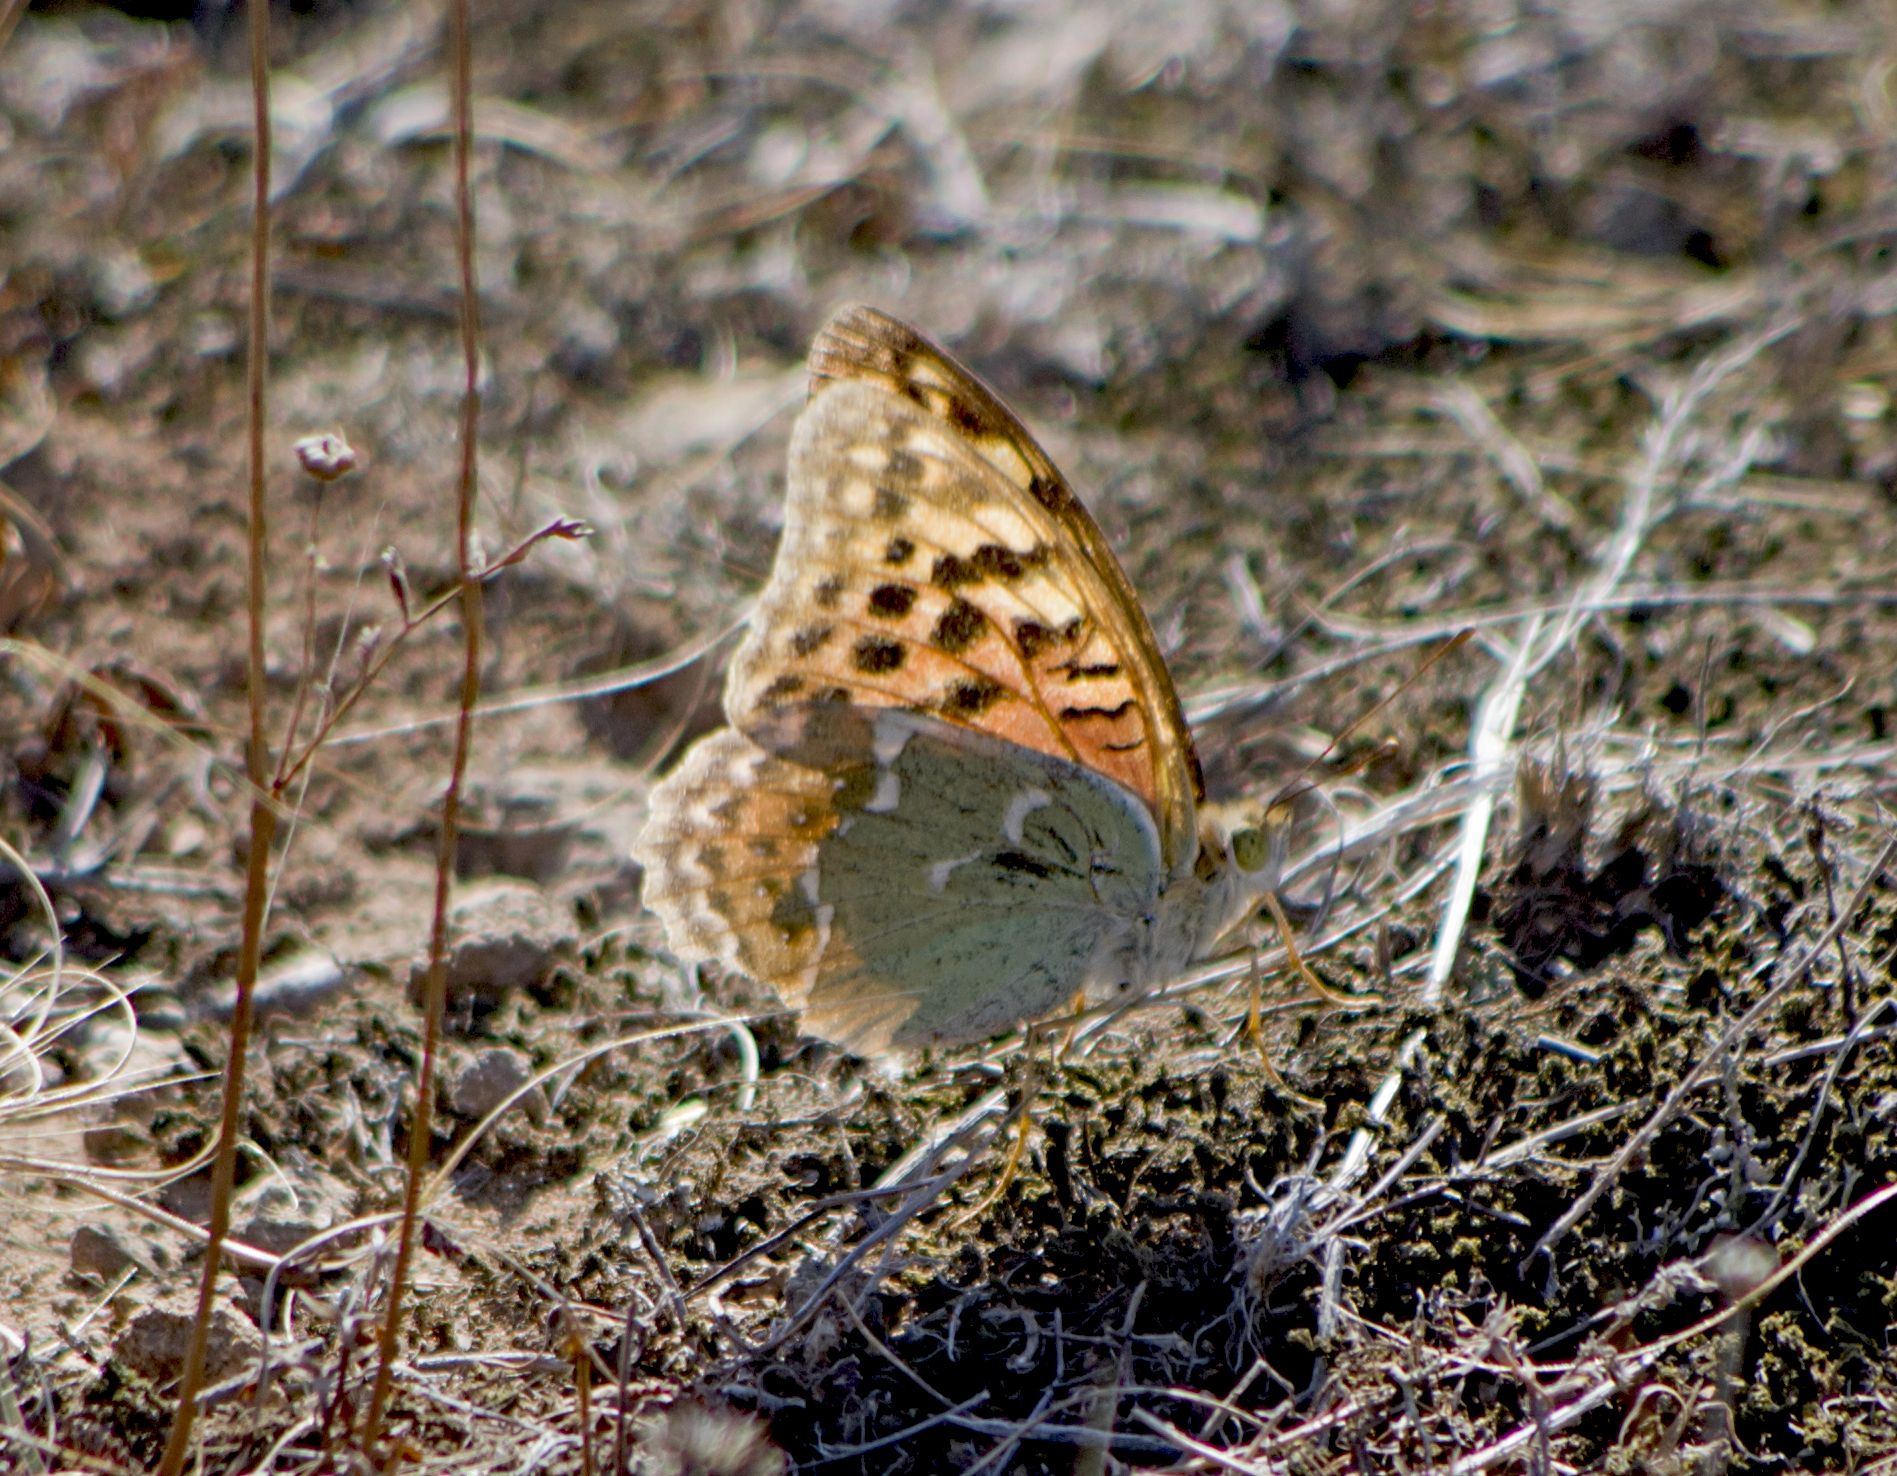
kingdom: Animalia
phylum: Arthropoda
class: Insecta
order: Lepidoptera
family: Nymphalidae
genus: Damora
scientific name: Damora pandora
